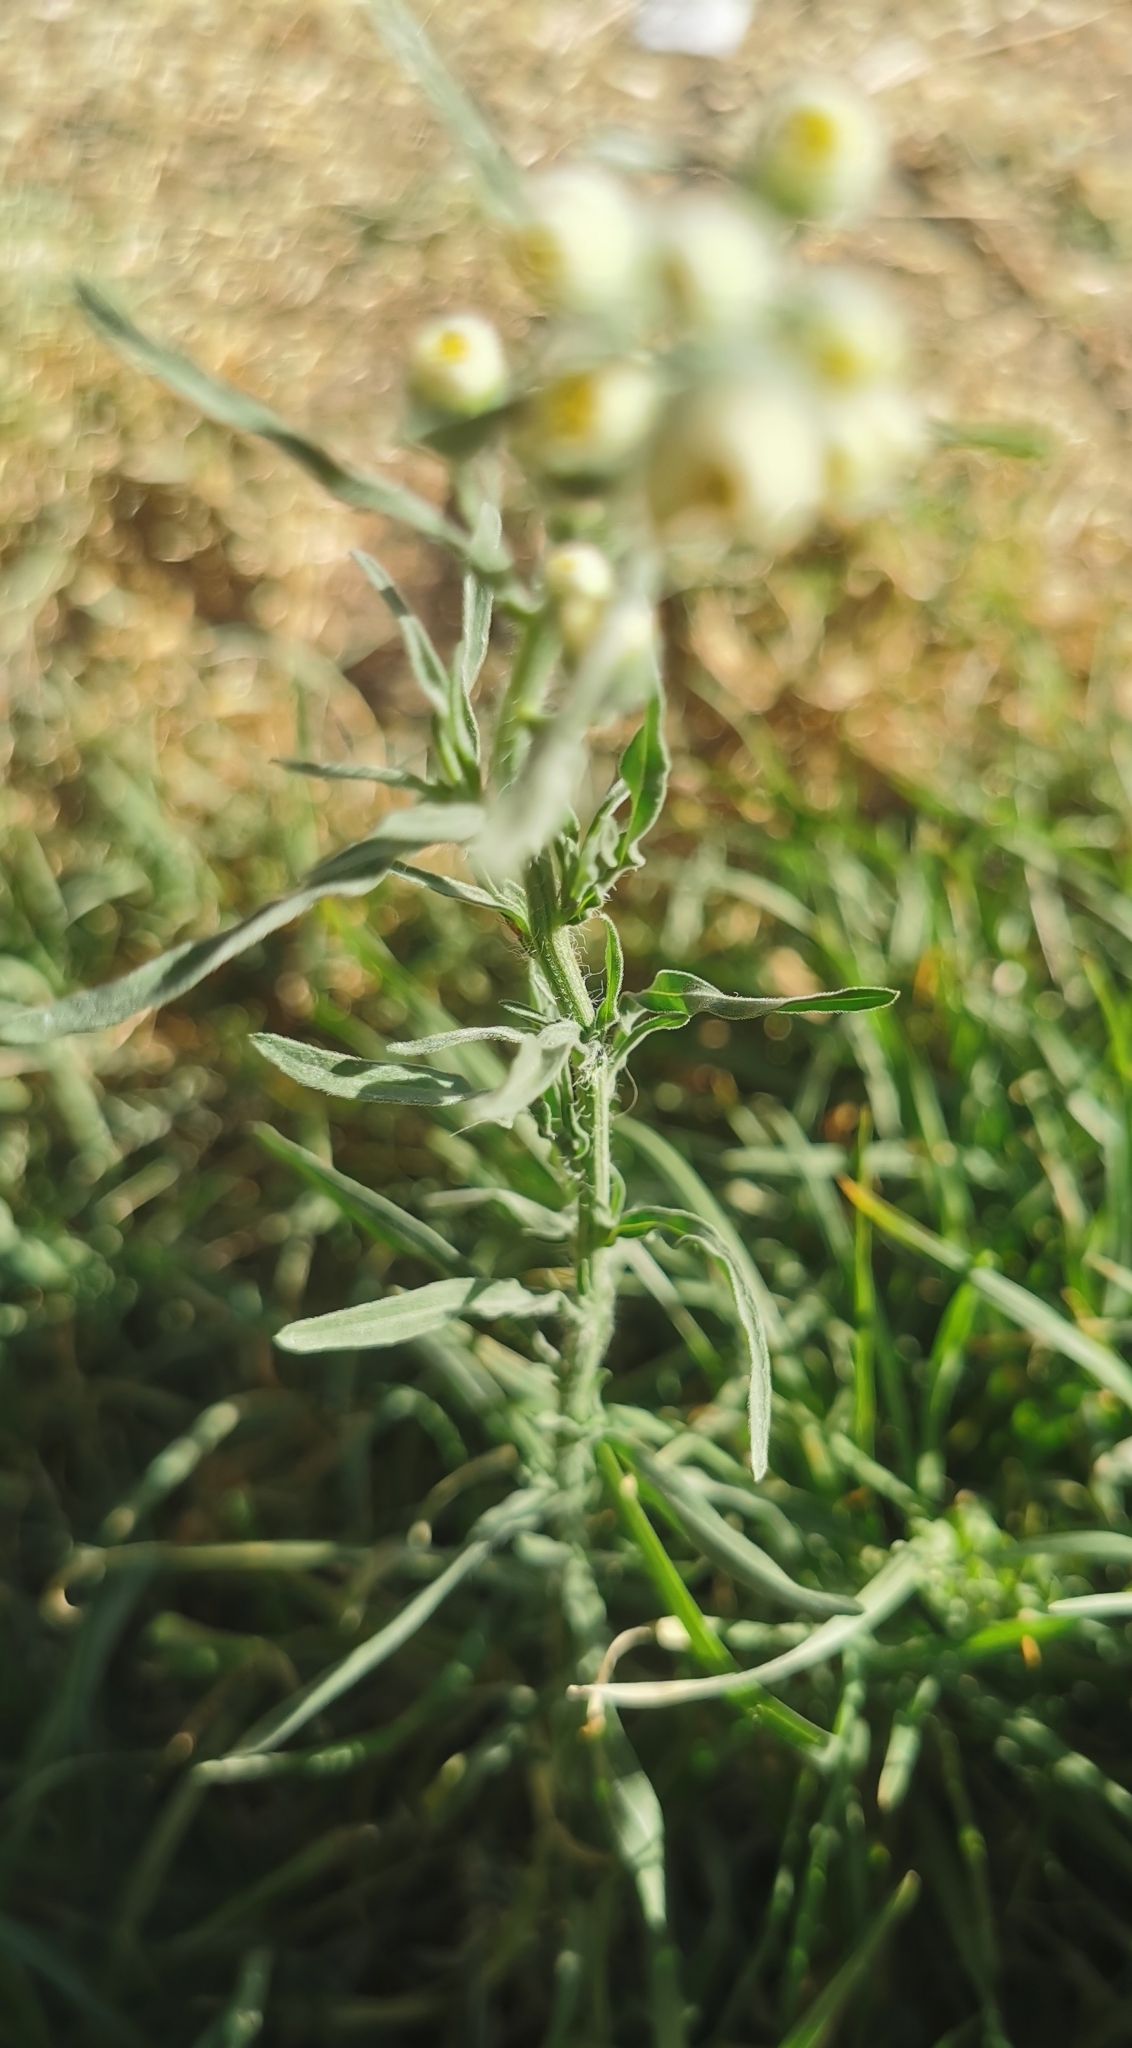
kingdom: Plantae
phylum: Tracheophyta
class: Magnoliopsida
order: Asterales
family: Asteraceae
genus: Laennecia
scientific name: Laennecia coulteri
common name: Coulter's woolwort
